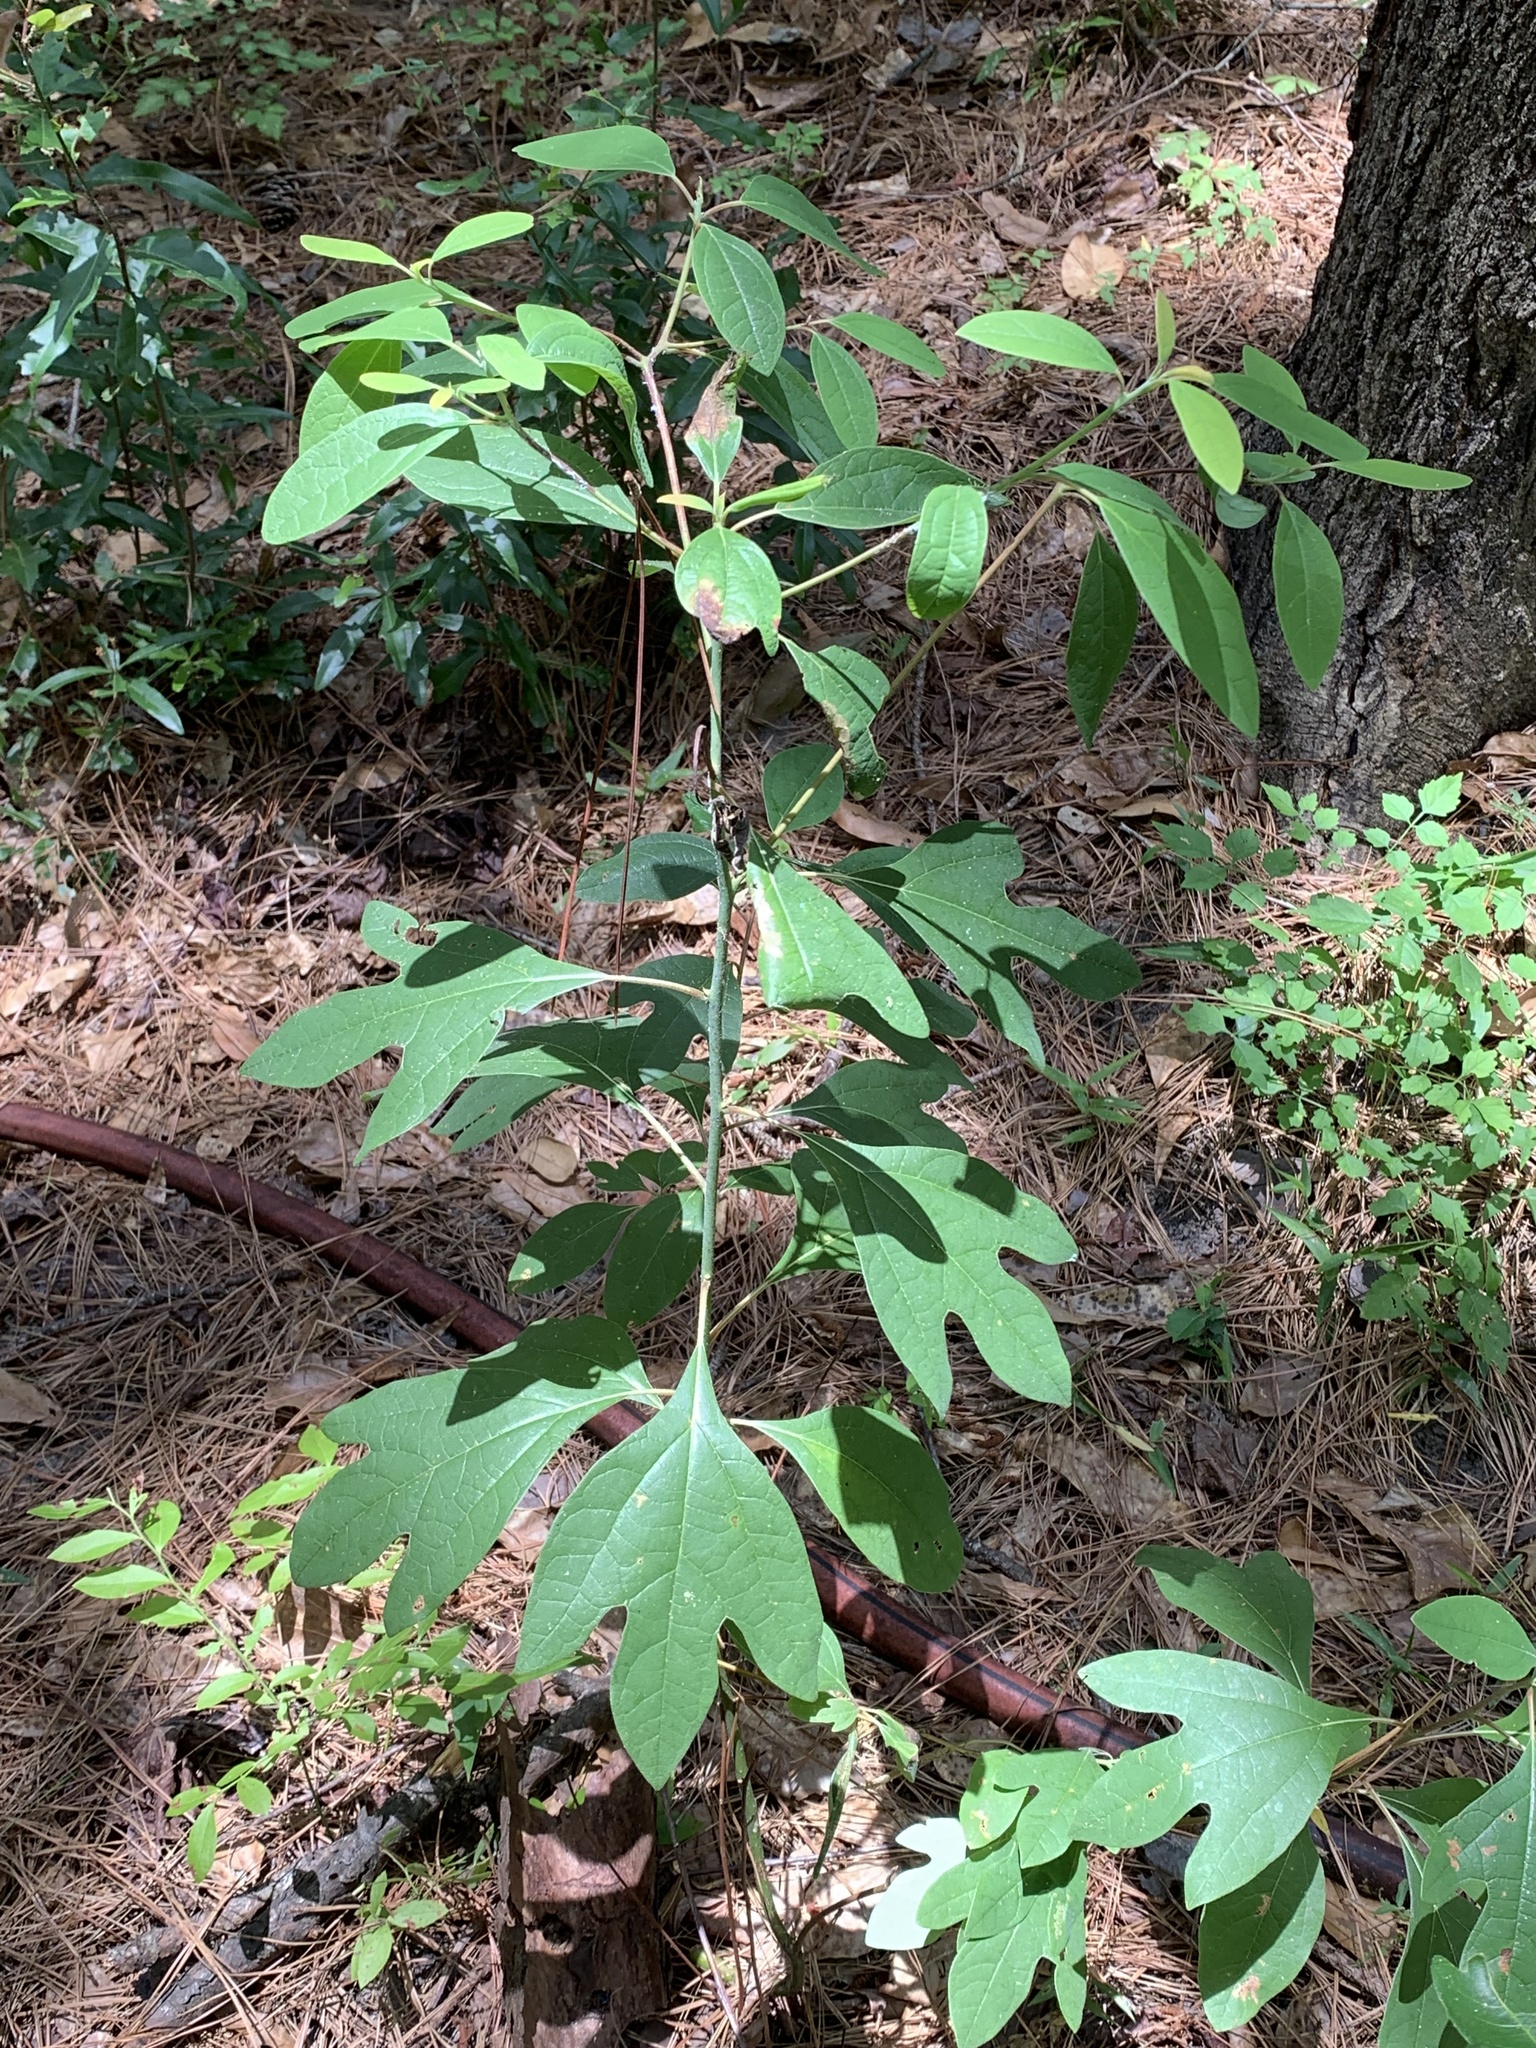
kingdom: Plantae
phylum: Tracheophyta
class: Magnoliopsida
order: Laurales
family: Lauraceae
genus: Sassafras
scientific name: Sassafras albidum
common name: Sassafras
